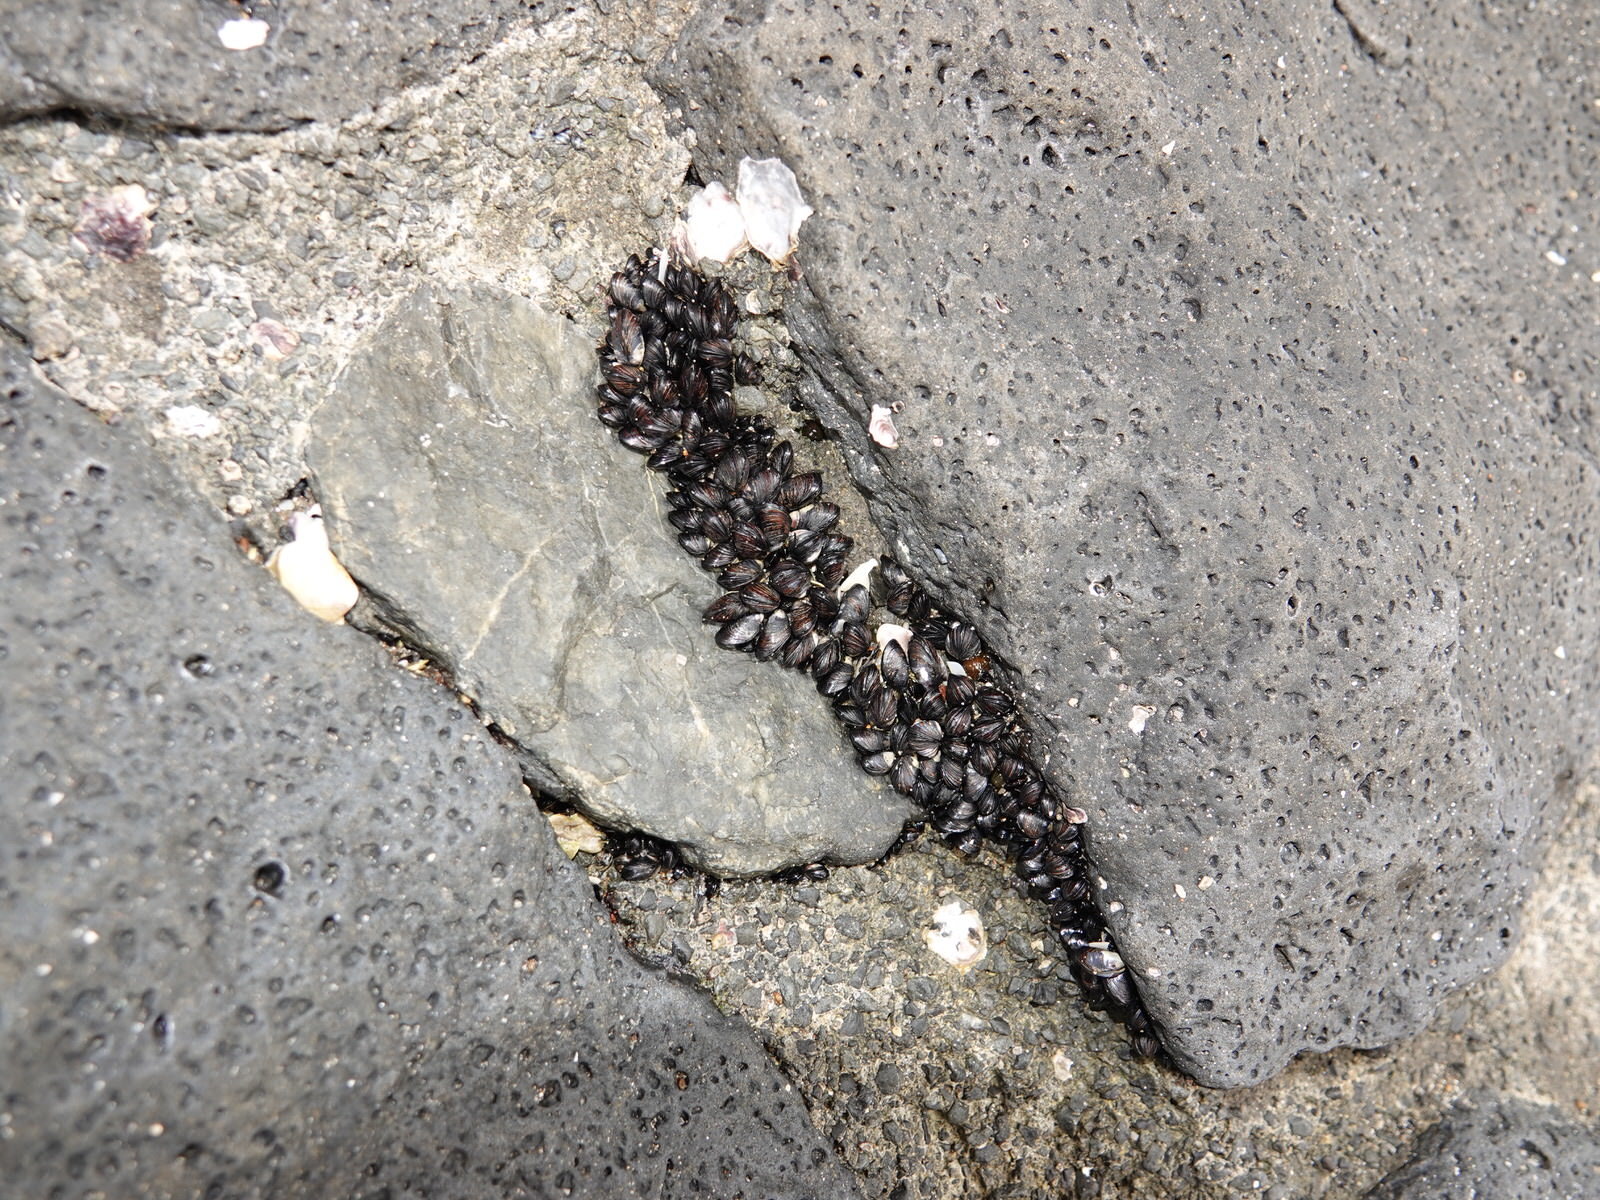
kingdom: Animalia
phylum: Mollusca
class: Bivalvia
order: Mytilida
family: Mytilidae
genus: Xenostrobus
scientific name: Xenostrobus neozelanicus
